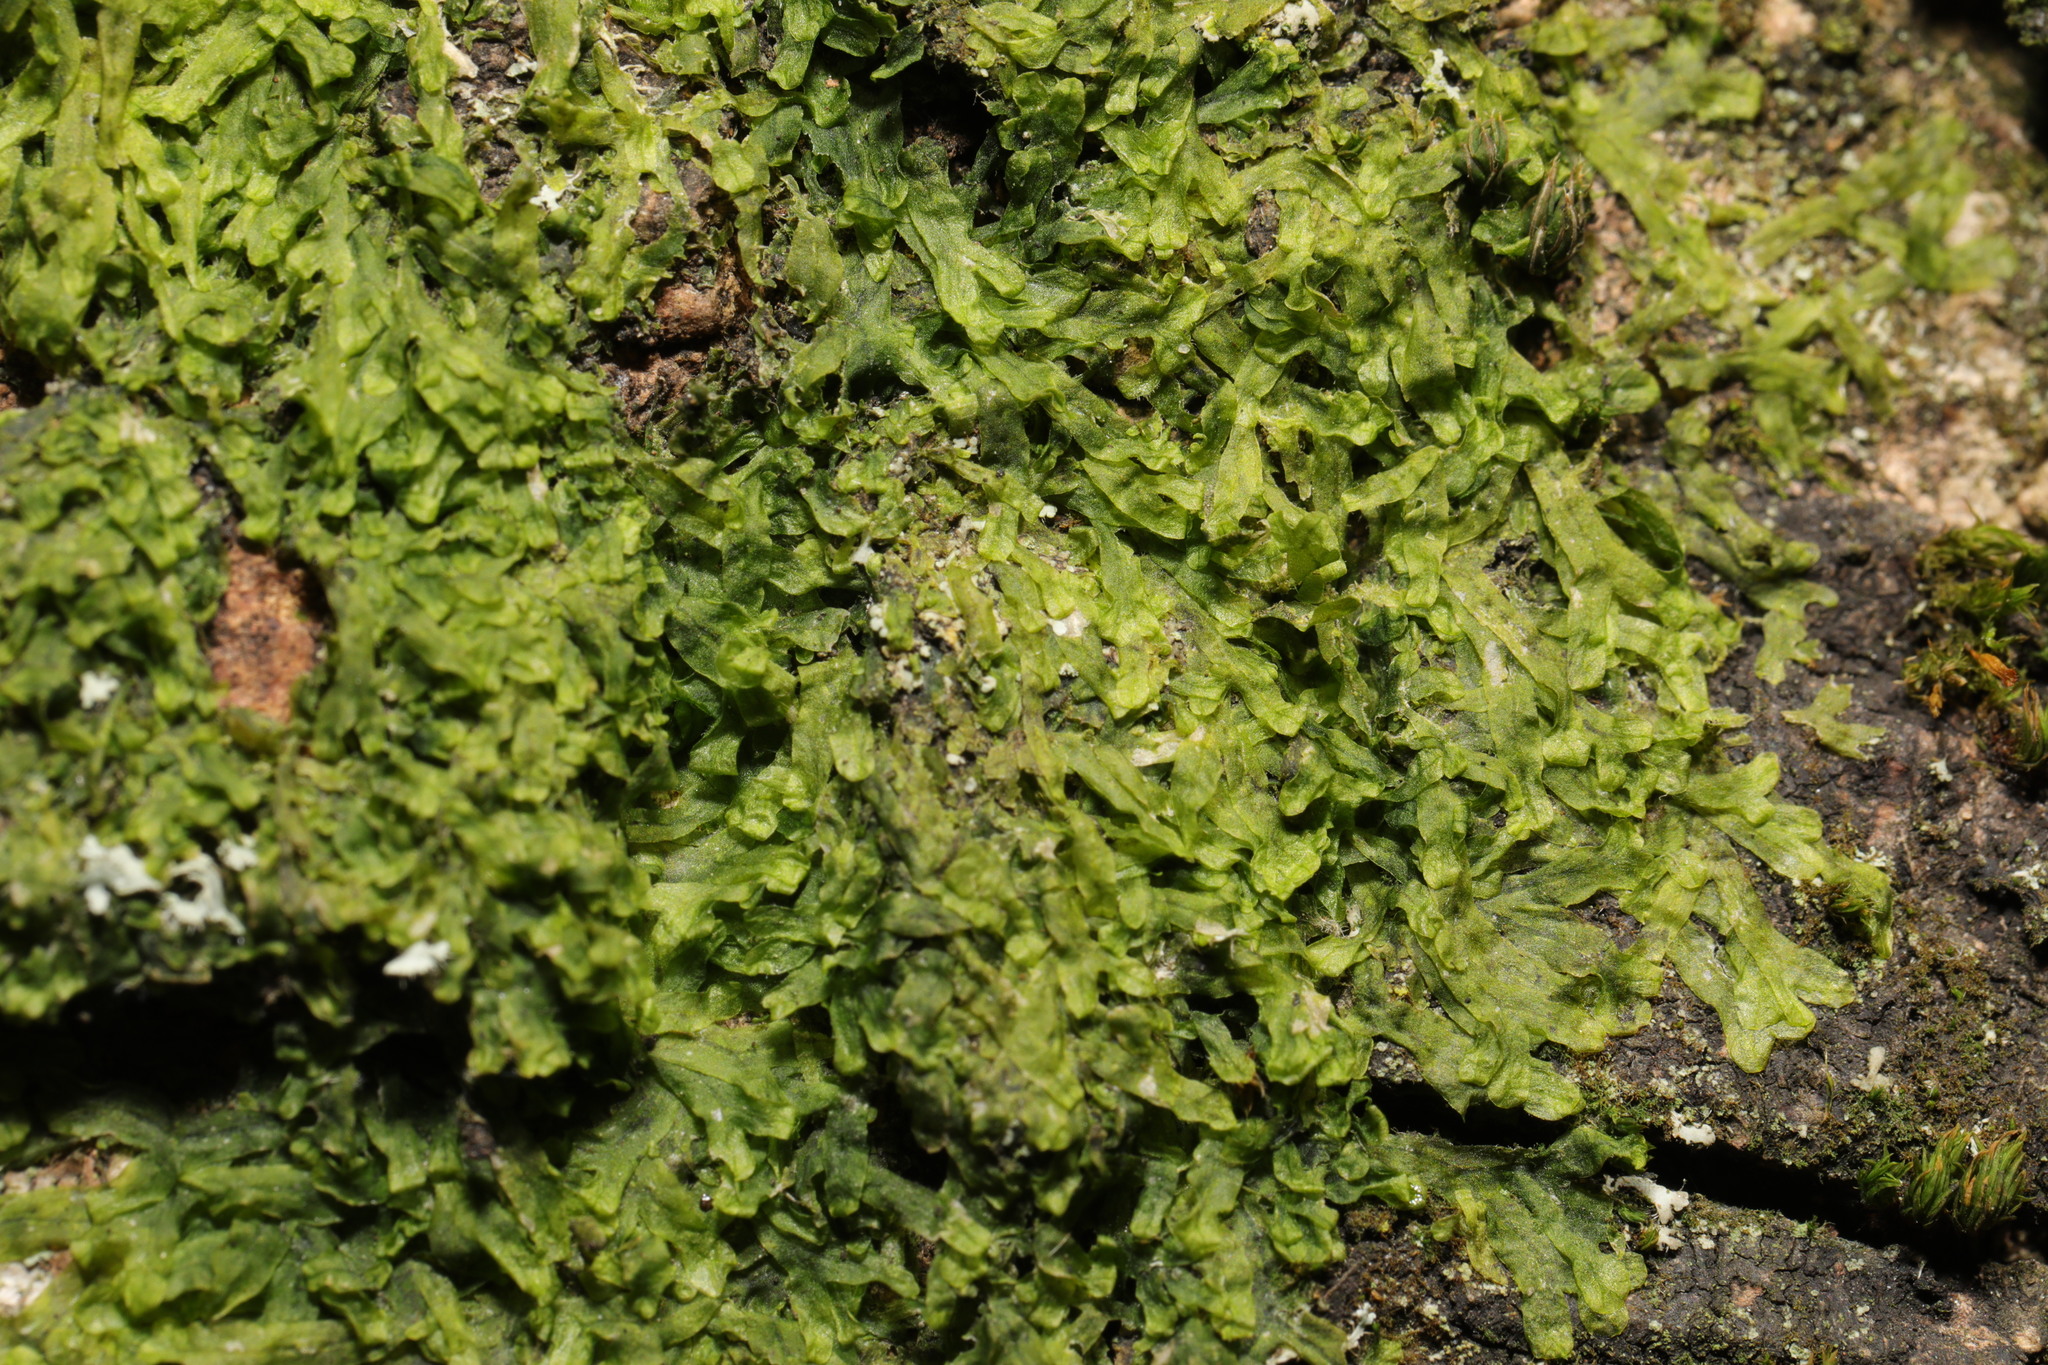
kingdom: Plantae
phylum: Marchantiophyta
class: Jungermanniopsida
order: Metzgeriales
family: Metzgeriaceae
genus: Metzgeria
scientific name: Metzgeria furcata
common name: Forked veilwort
